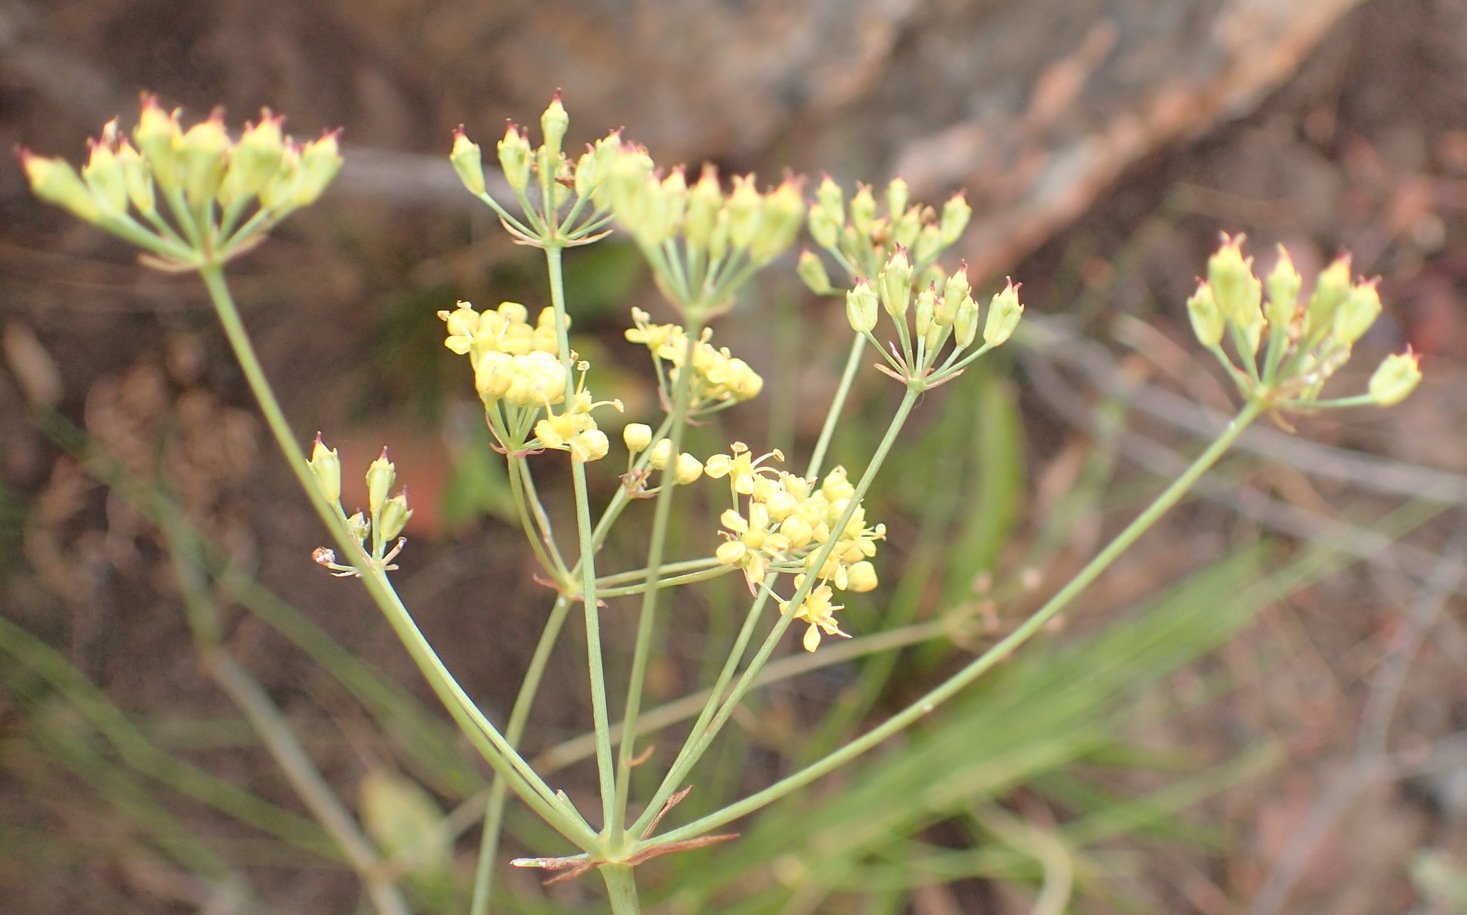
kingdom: Plantae
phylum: Tracheophyta
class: Magnoliopsida
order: Apiales
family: Apiaceae
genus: Lichtensteinia
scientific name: Lichtensteinia interrupta
